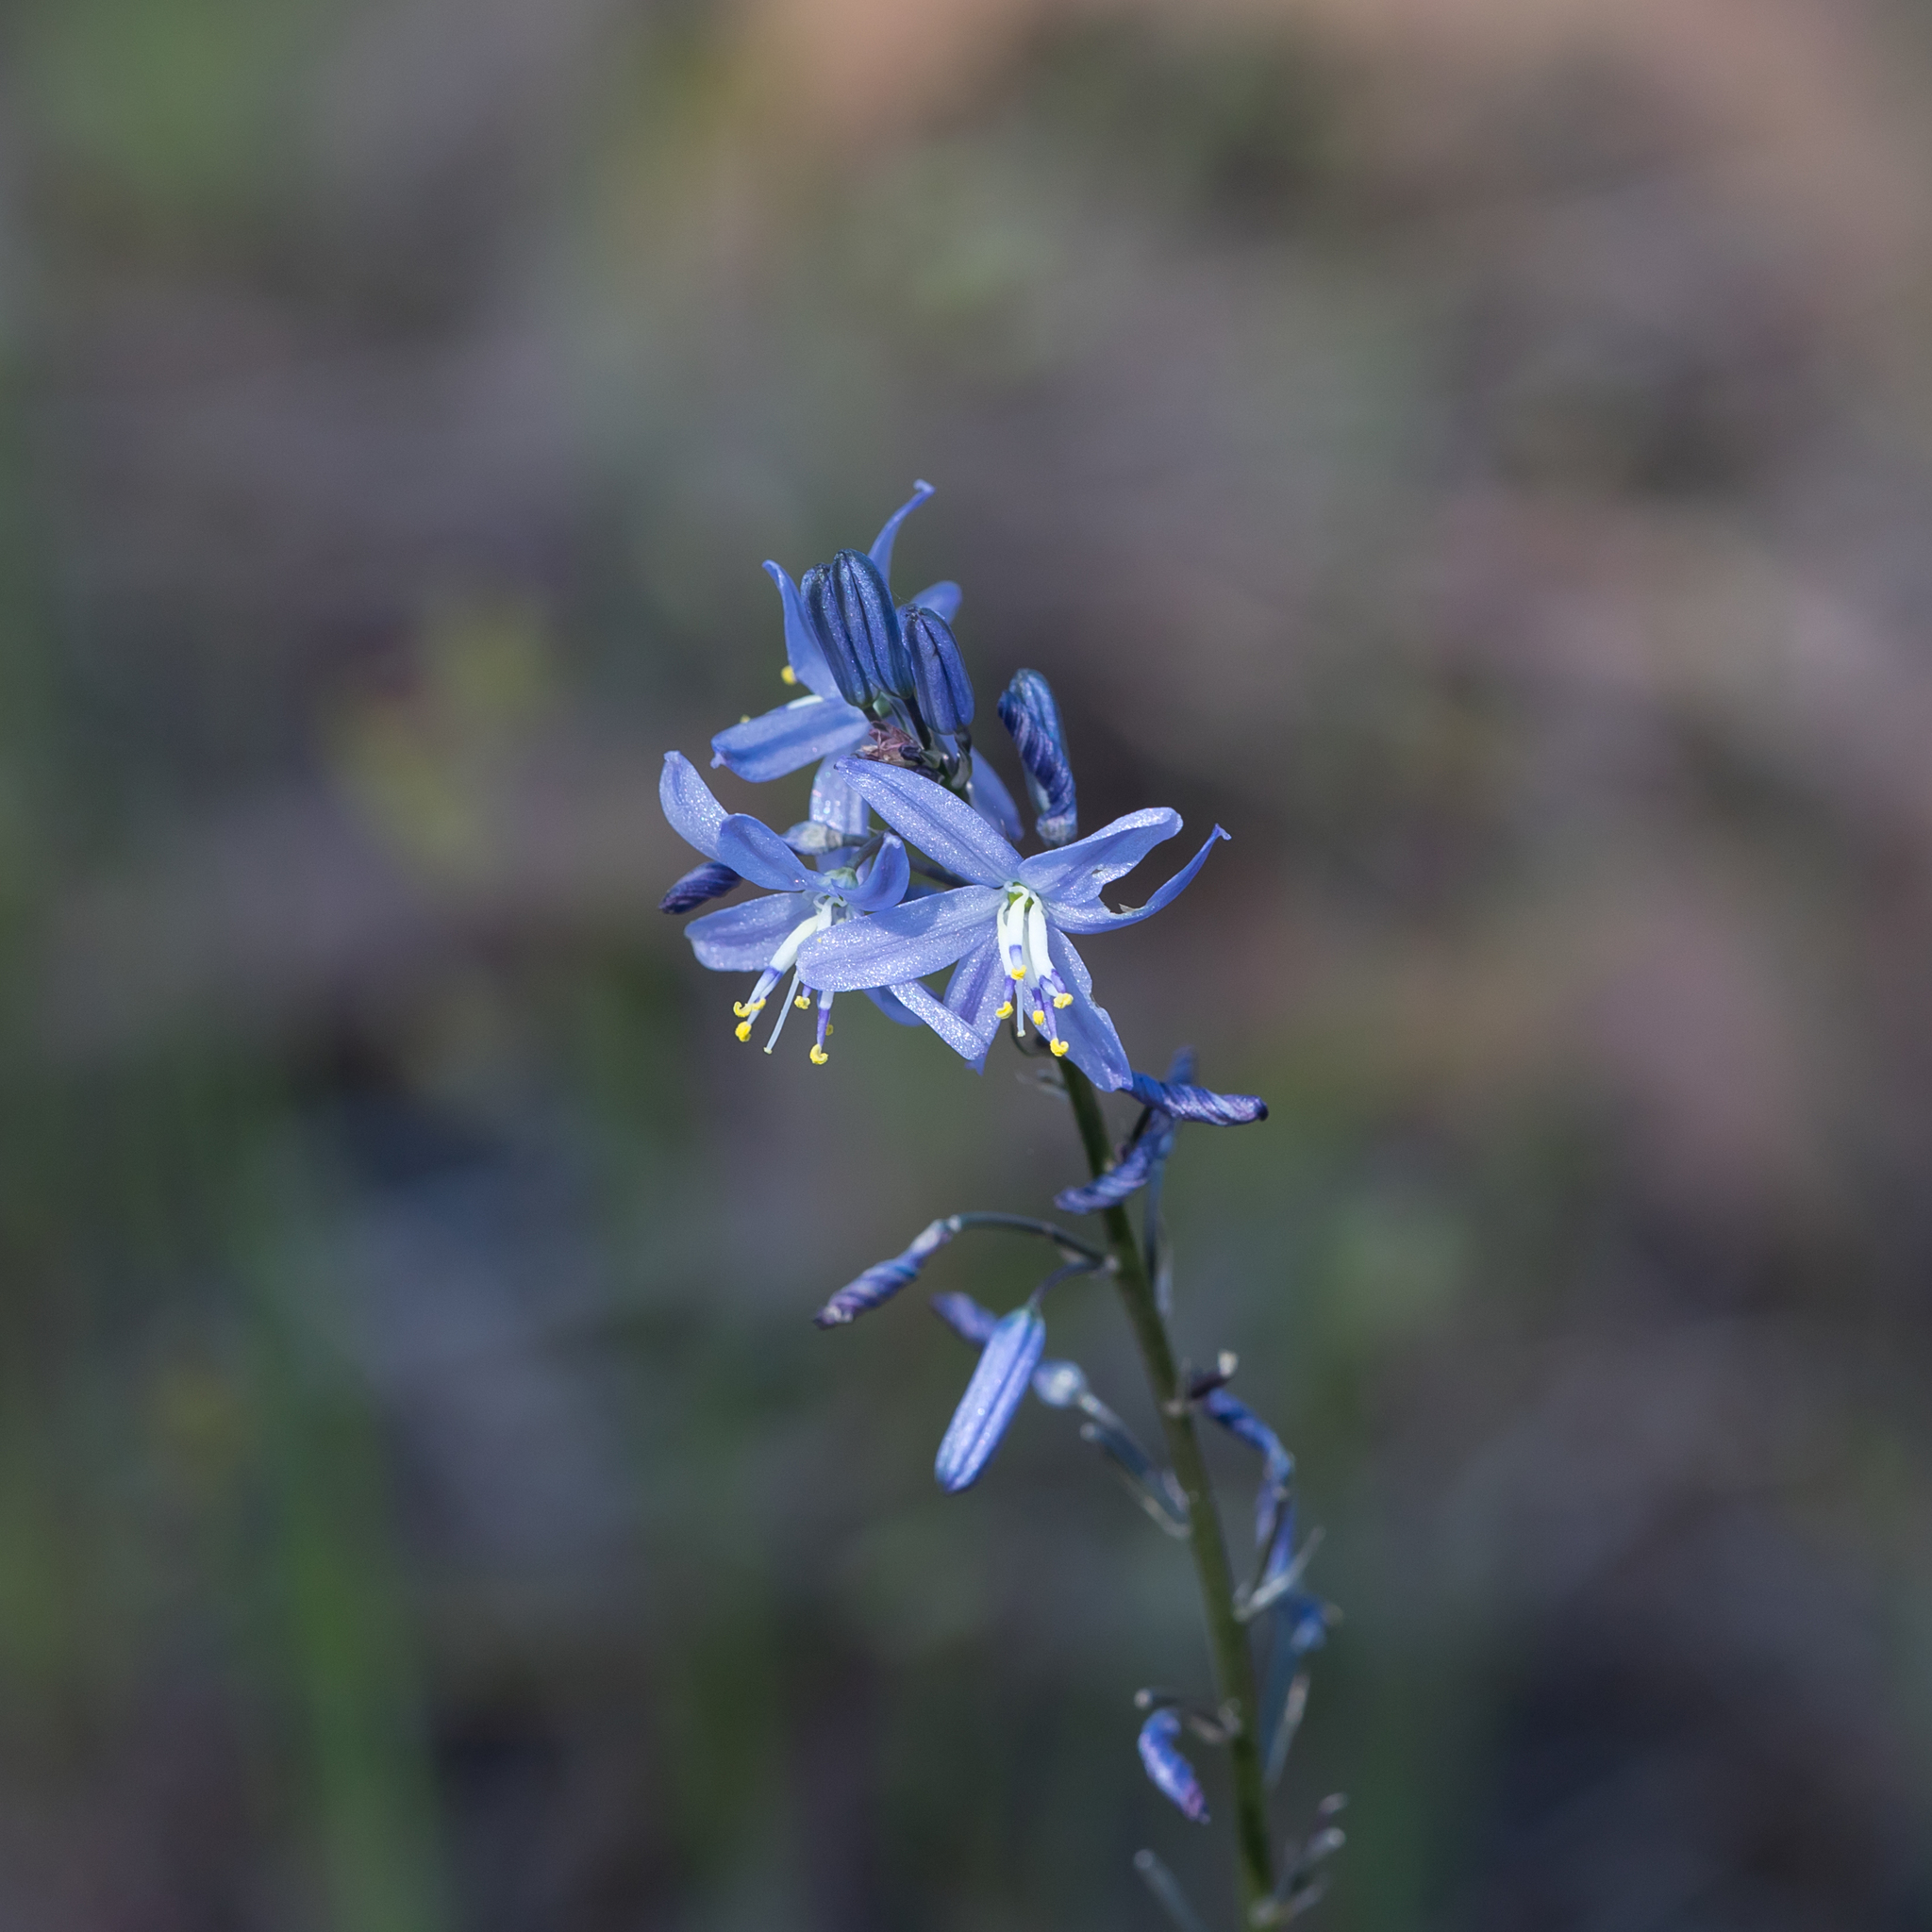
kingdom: Plantae
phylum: Tracheophyta
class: Liliopsida
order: Asparagales
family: Asphodelaceae
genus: Caesia
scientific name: Caesia calliantha
